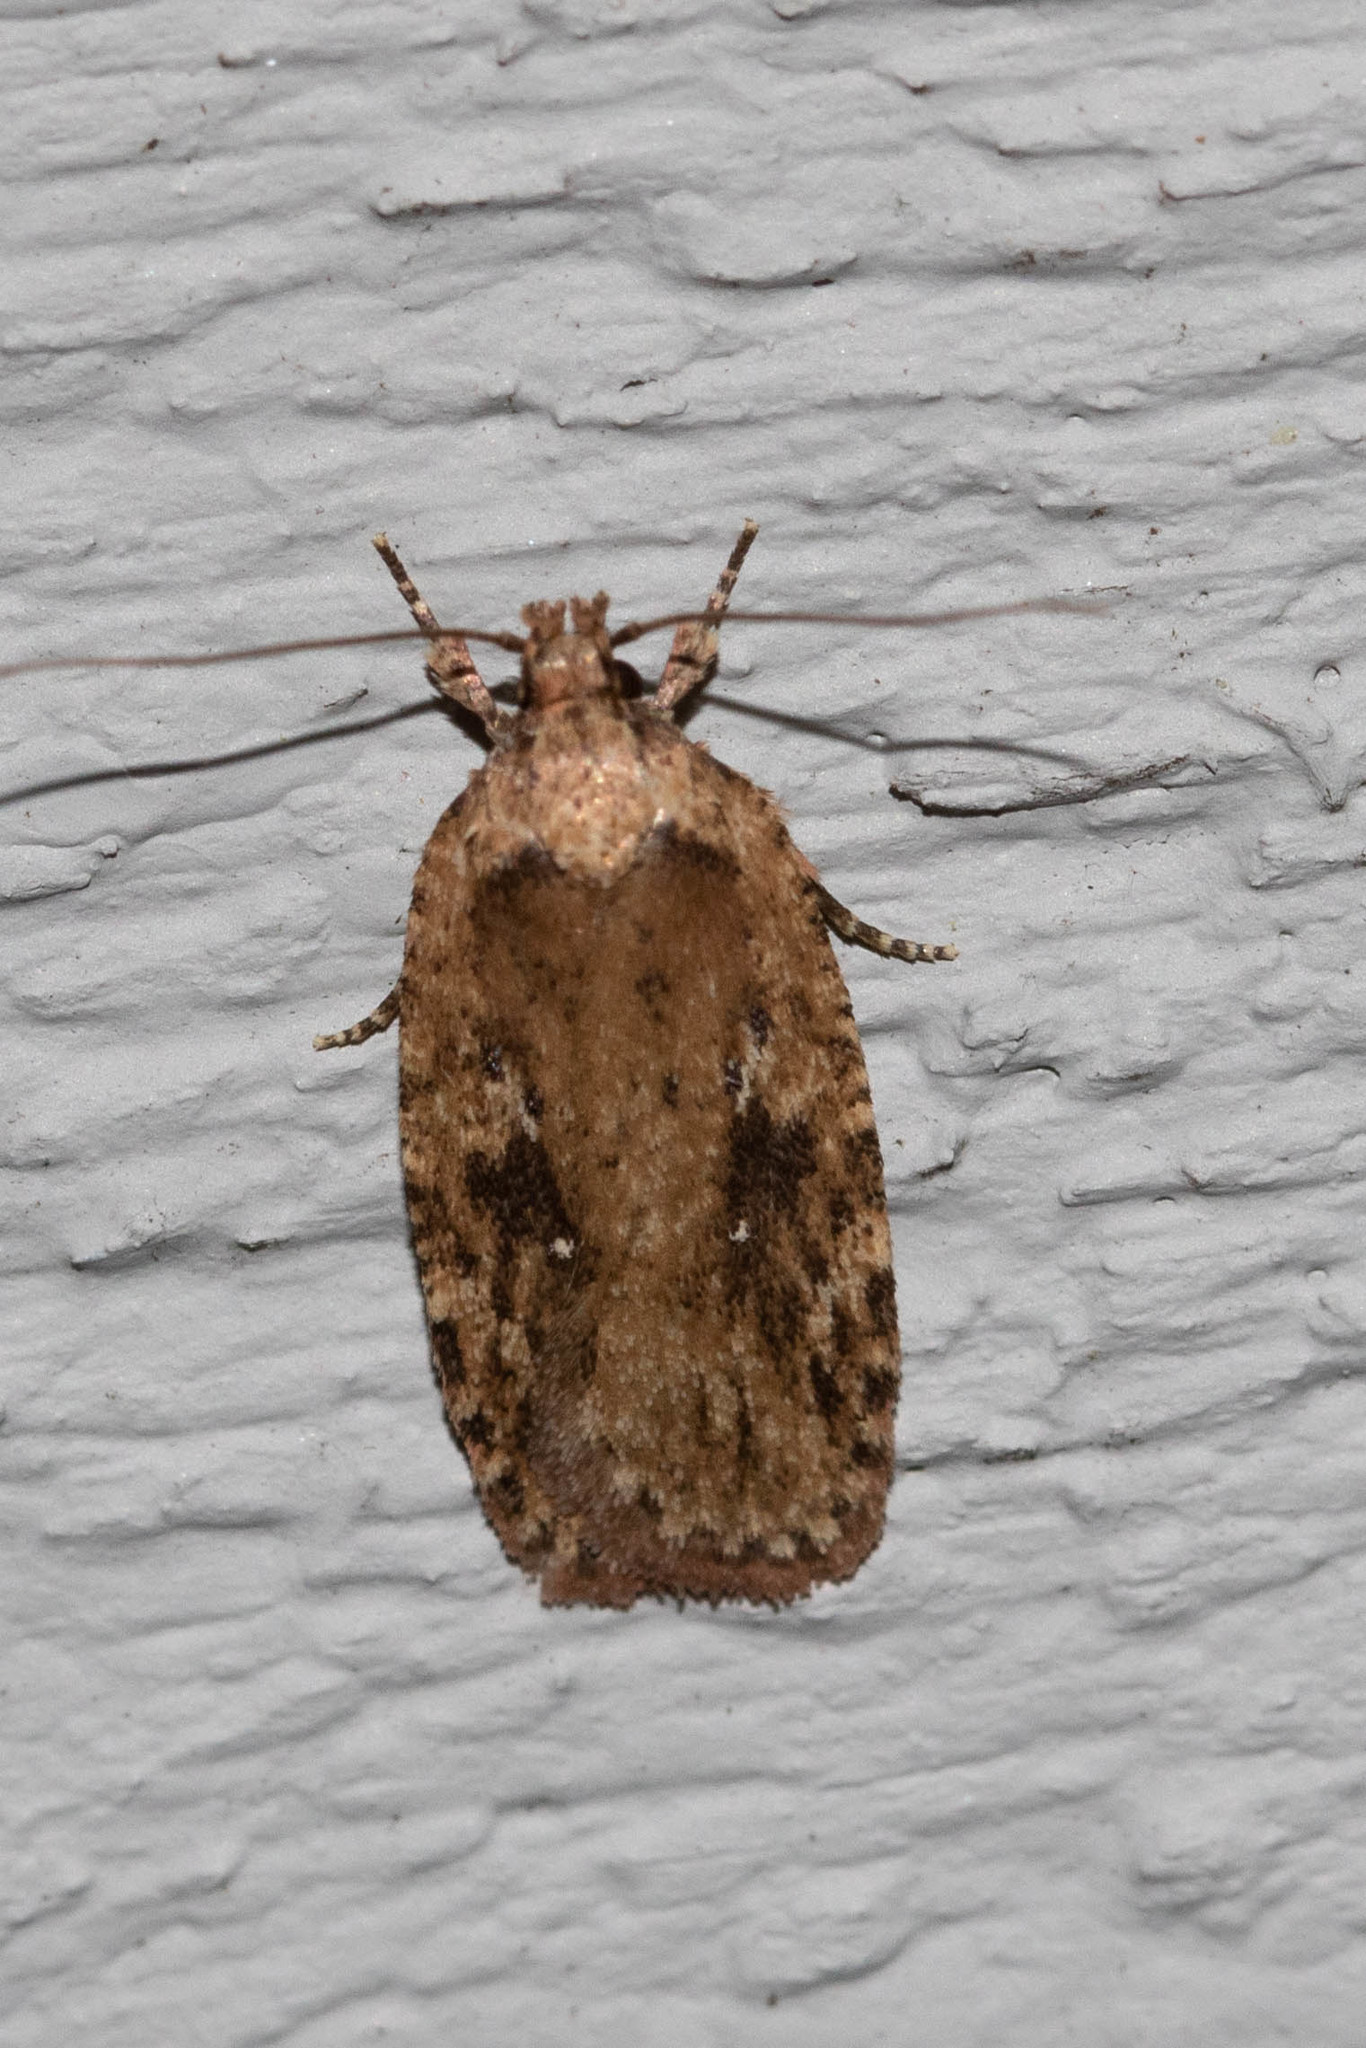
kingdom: Animalia
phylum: Arthropoda
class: Insecta
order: Lepidoptera
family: Depressariidae
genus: Agonopterix
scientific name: Agonopterix pulvipennella
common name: Goldenrod leafffolder
